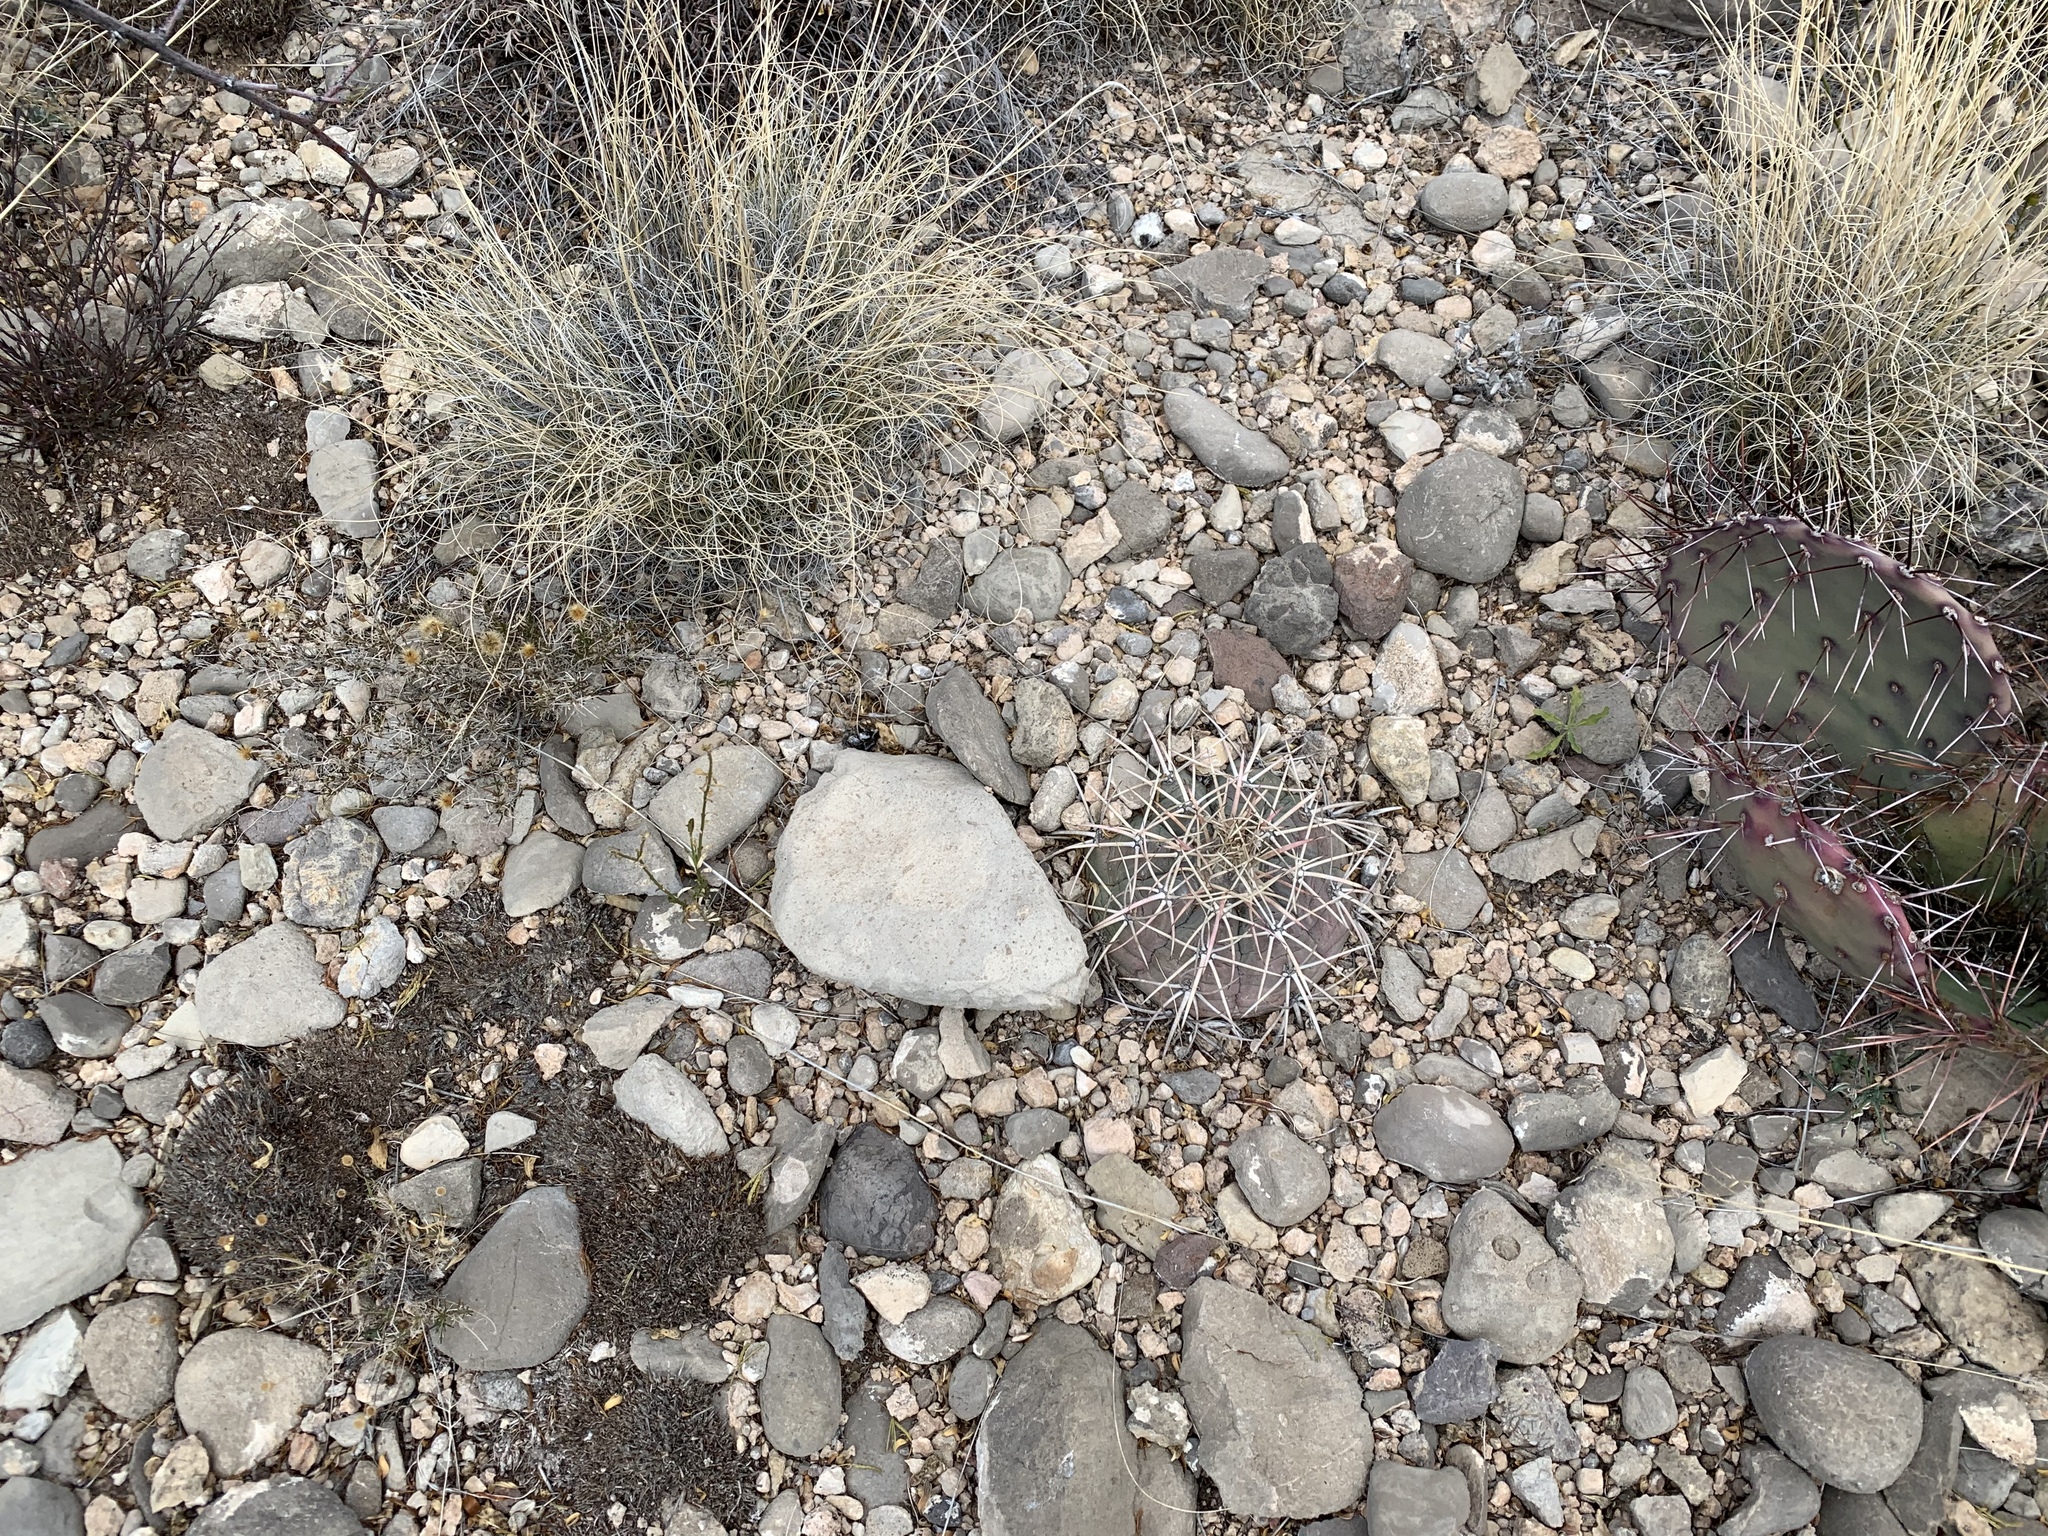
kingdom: Plantae
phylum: Tracheophyta
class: Magnoliopsida
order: Caryophyllales
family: Cactaceae
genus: Echinocactus
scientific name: Echinocactus horizonthalonius
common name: Devilshead
